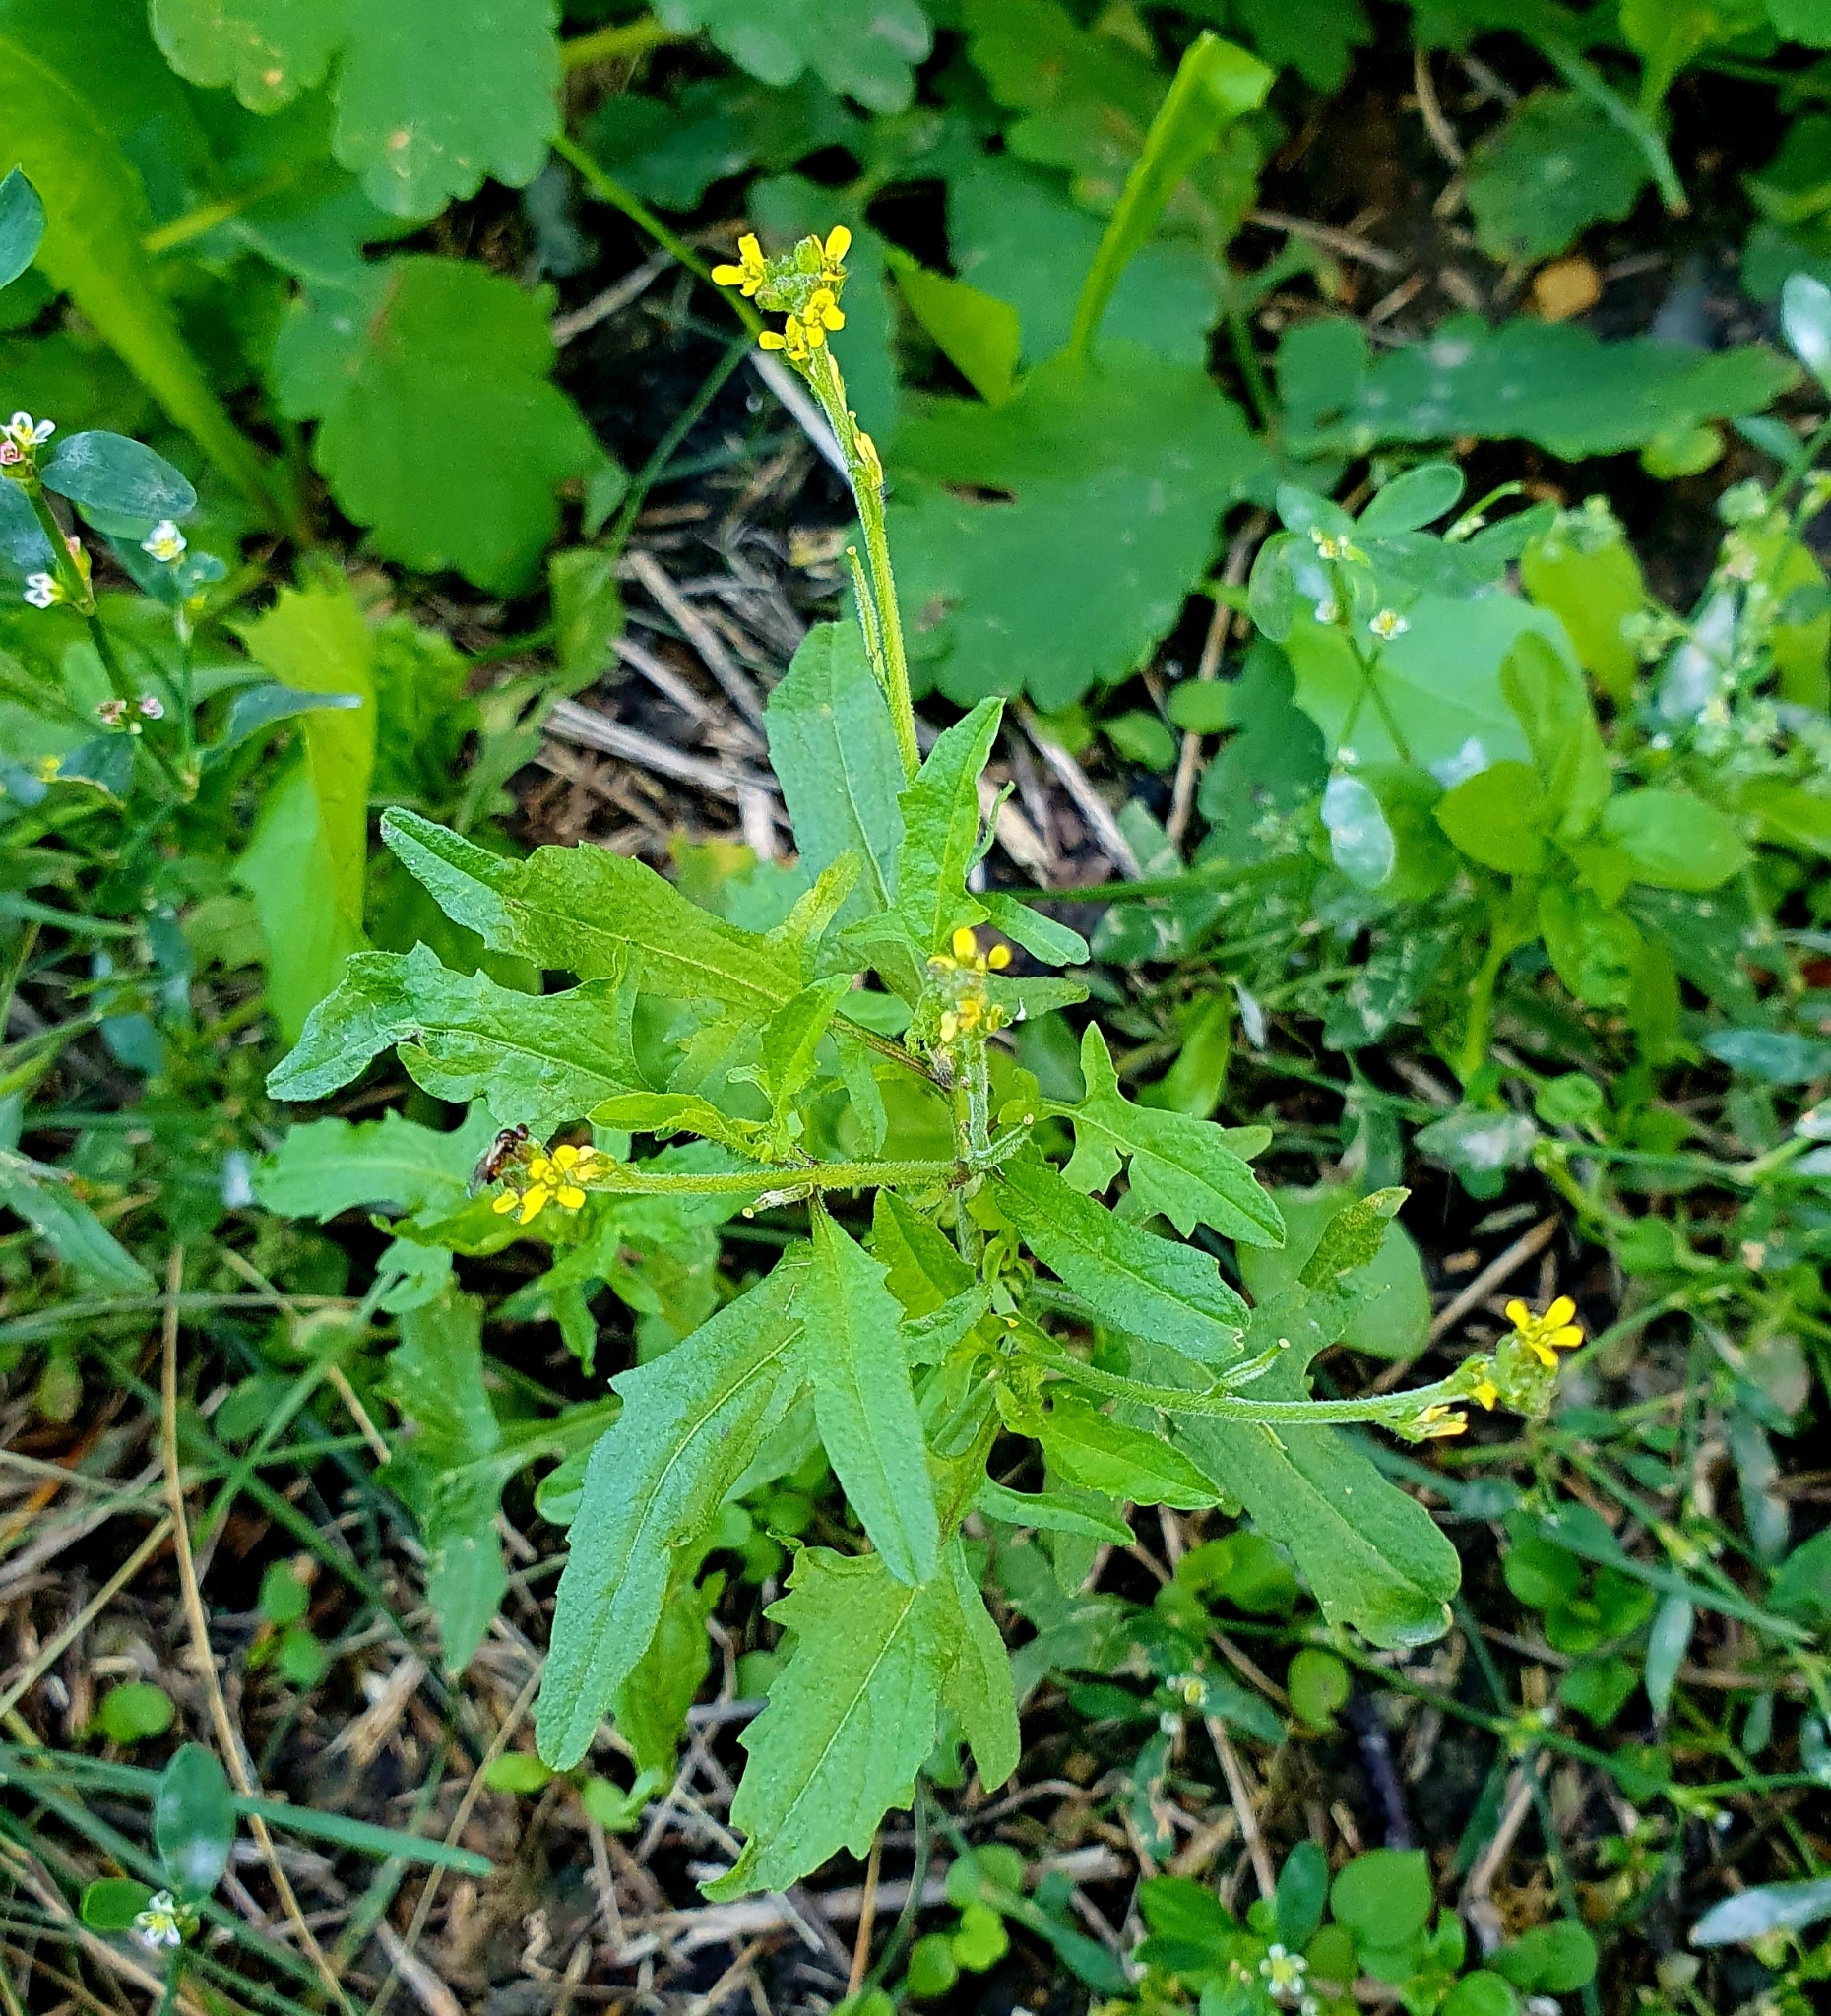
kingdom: Plantae
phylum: Tracheophyta
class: Magnoliopsida
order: Brassicales
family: Brassicaceae
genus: Sisymbrium
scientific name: Sisymbrium officinale
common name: Hedge mustard
